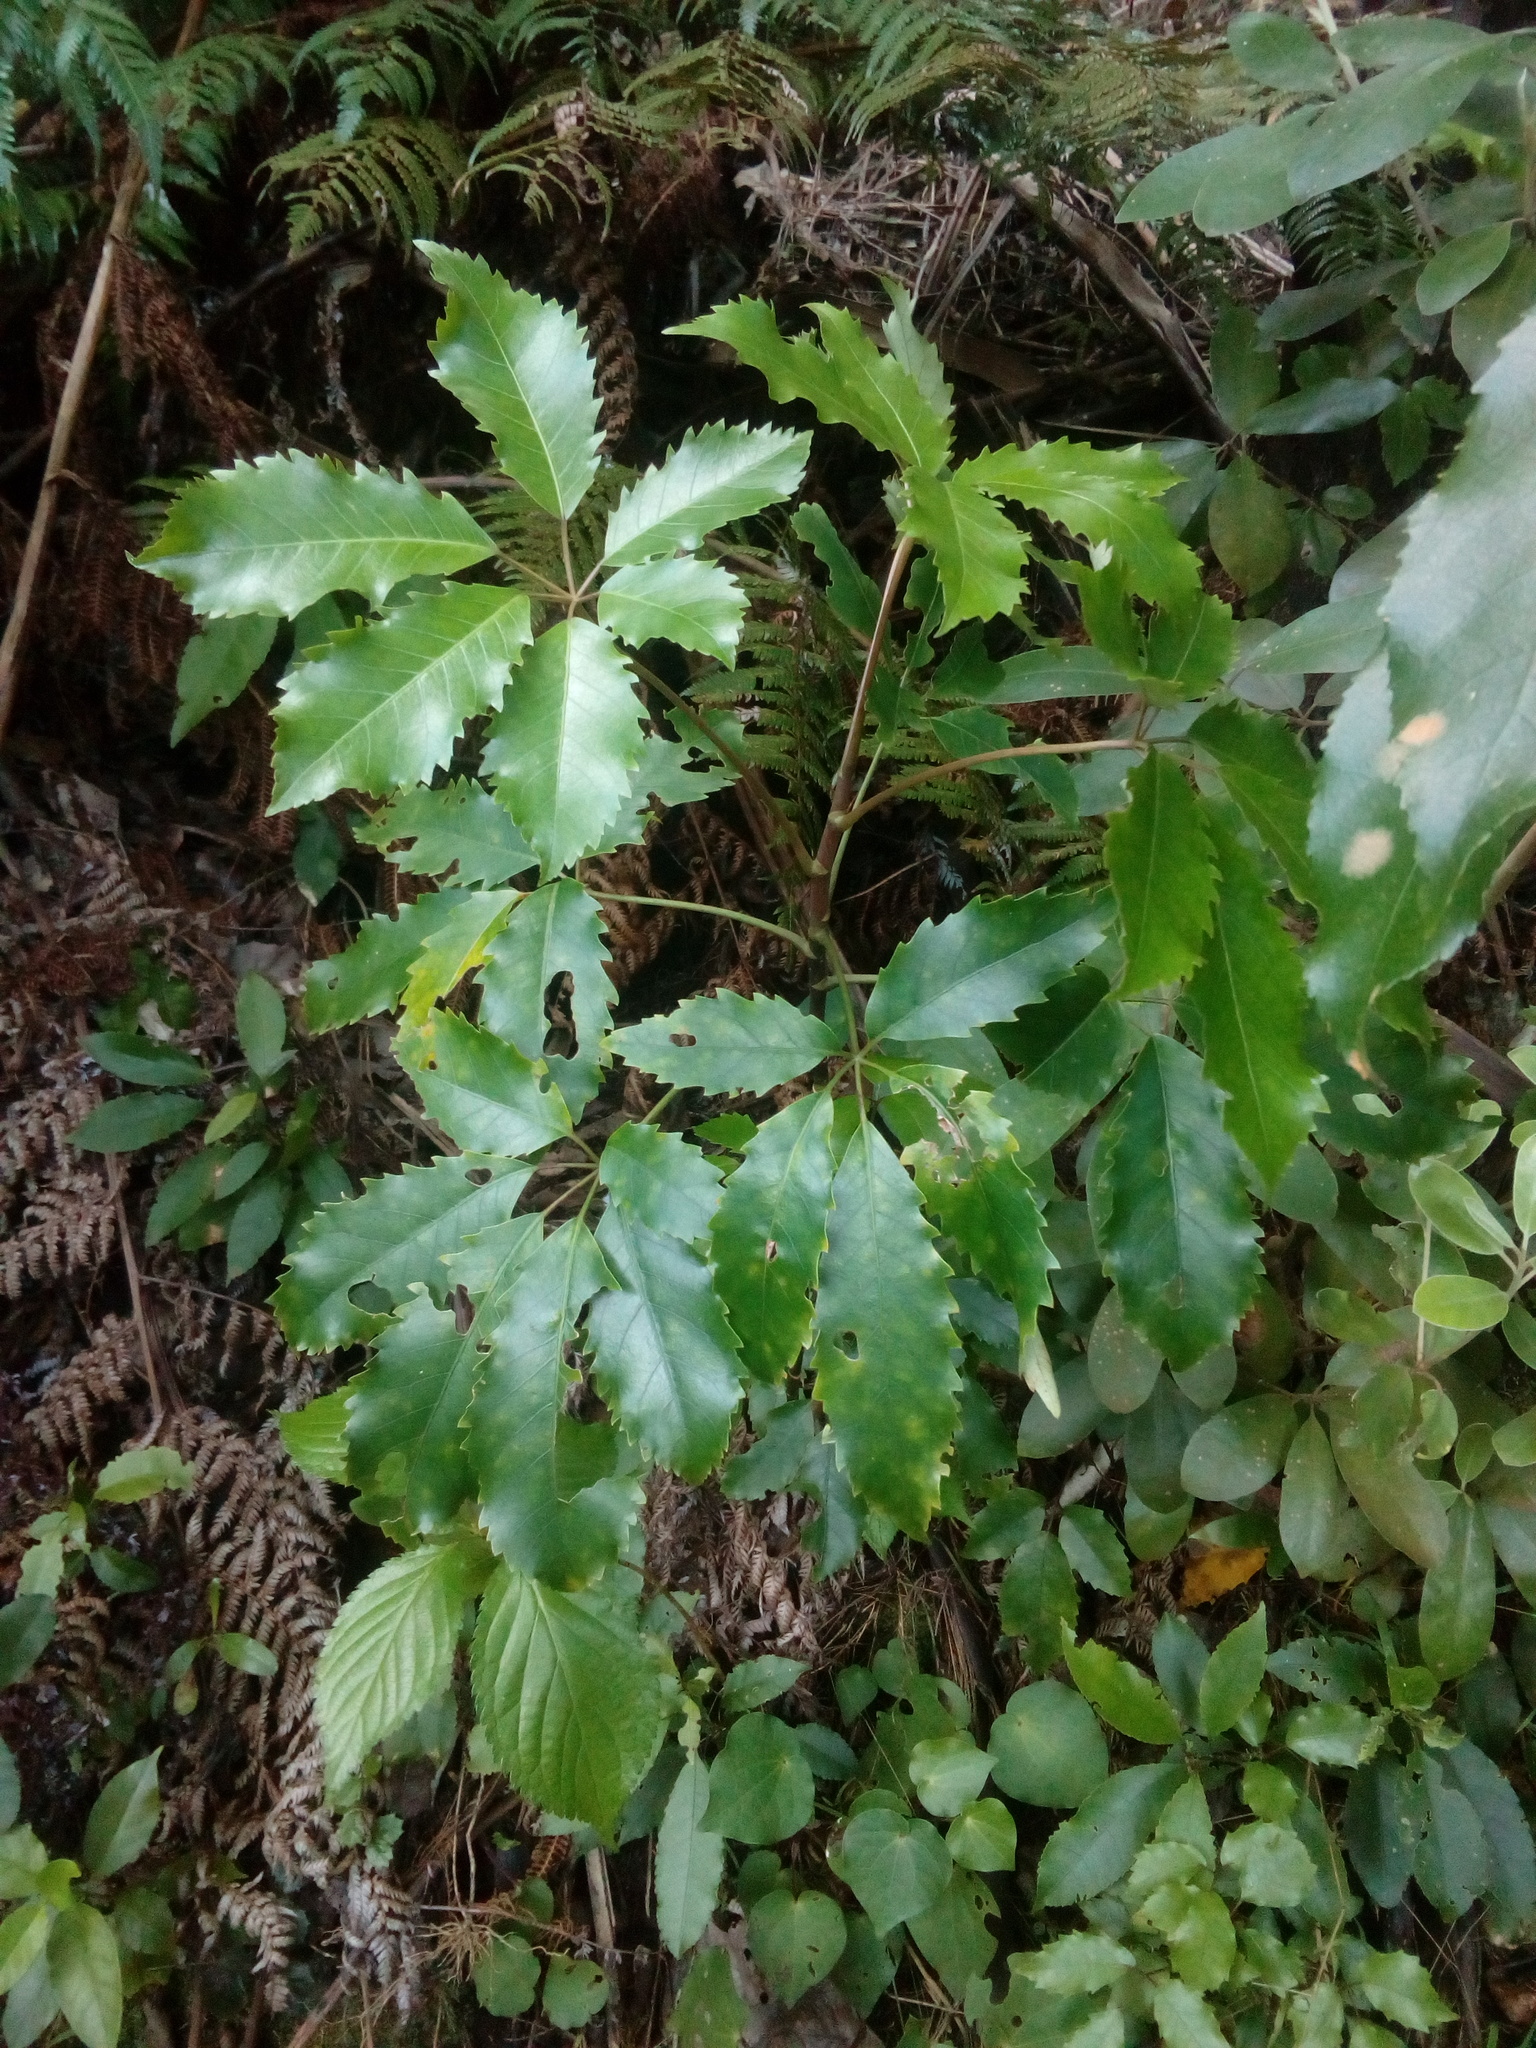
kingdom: Plantae
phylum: Tracheophyta
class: Magnoliopsida
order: Apiales
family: Araliaceae
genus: Neopanax
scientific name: Neopanax arboreus
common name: Five-fingers
